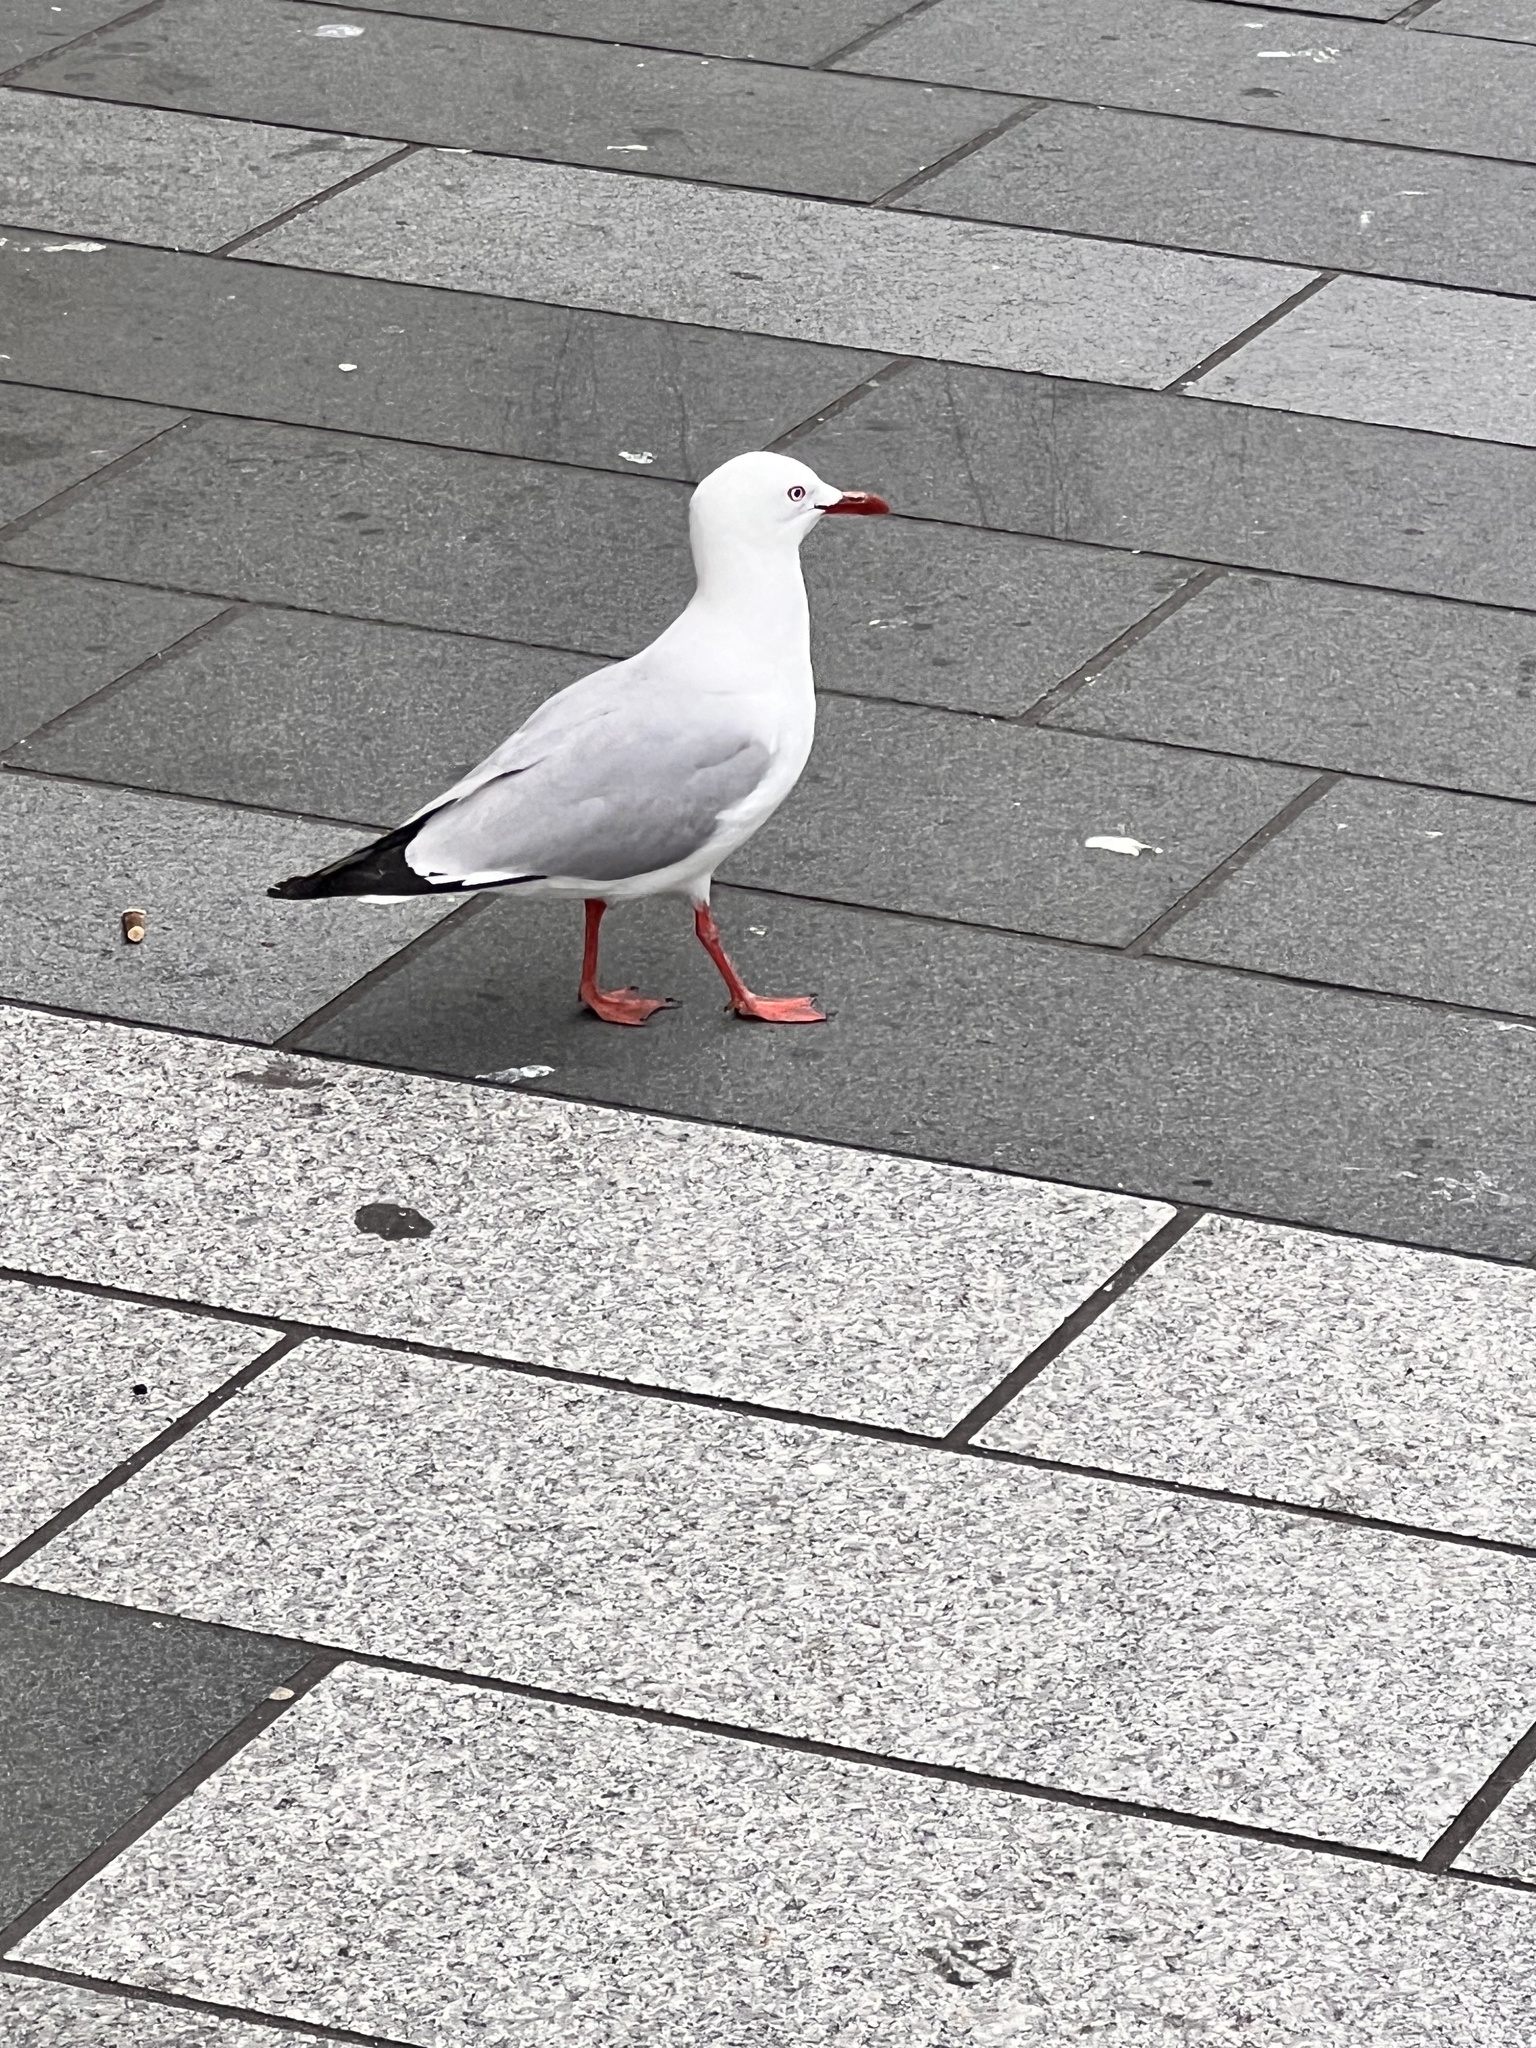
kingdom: Animalia
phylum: Chordata
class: Aves
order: Charadriiformes
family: Laridae
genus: Chroicocephalus
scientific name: Chroicocephalus novaehollandiae
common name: Silver gull
